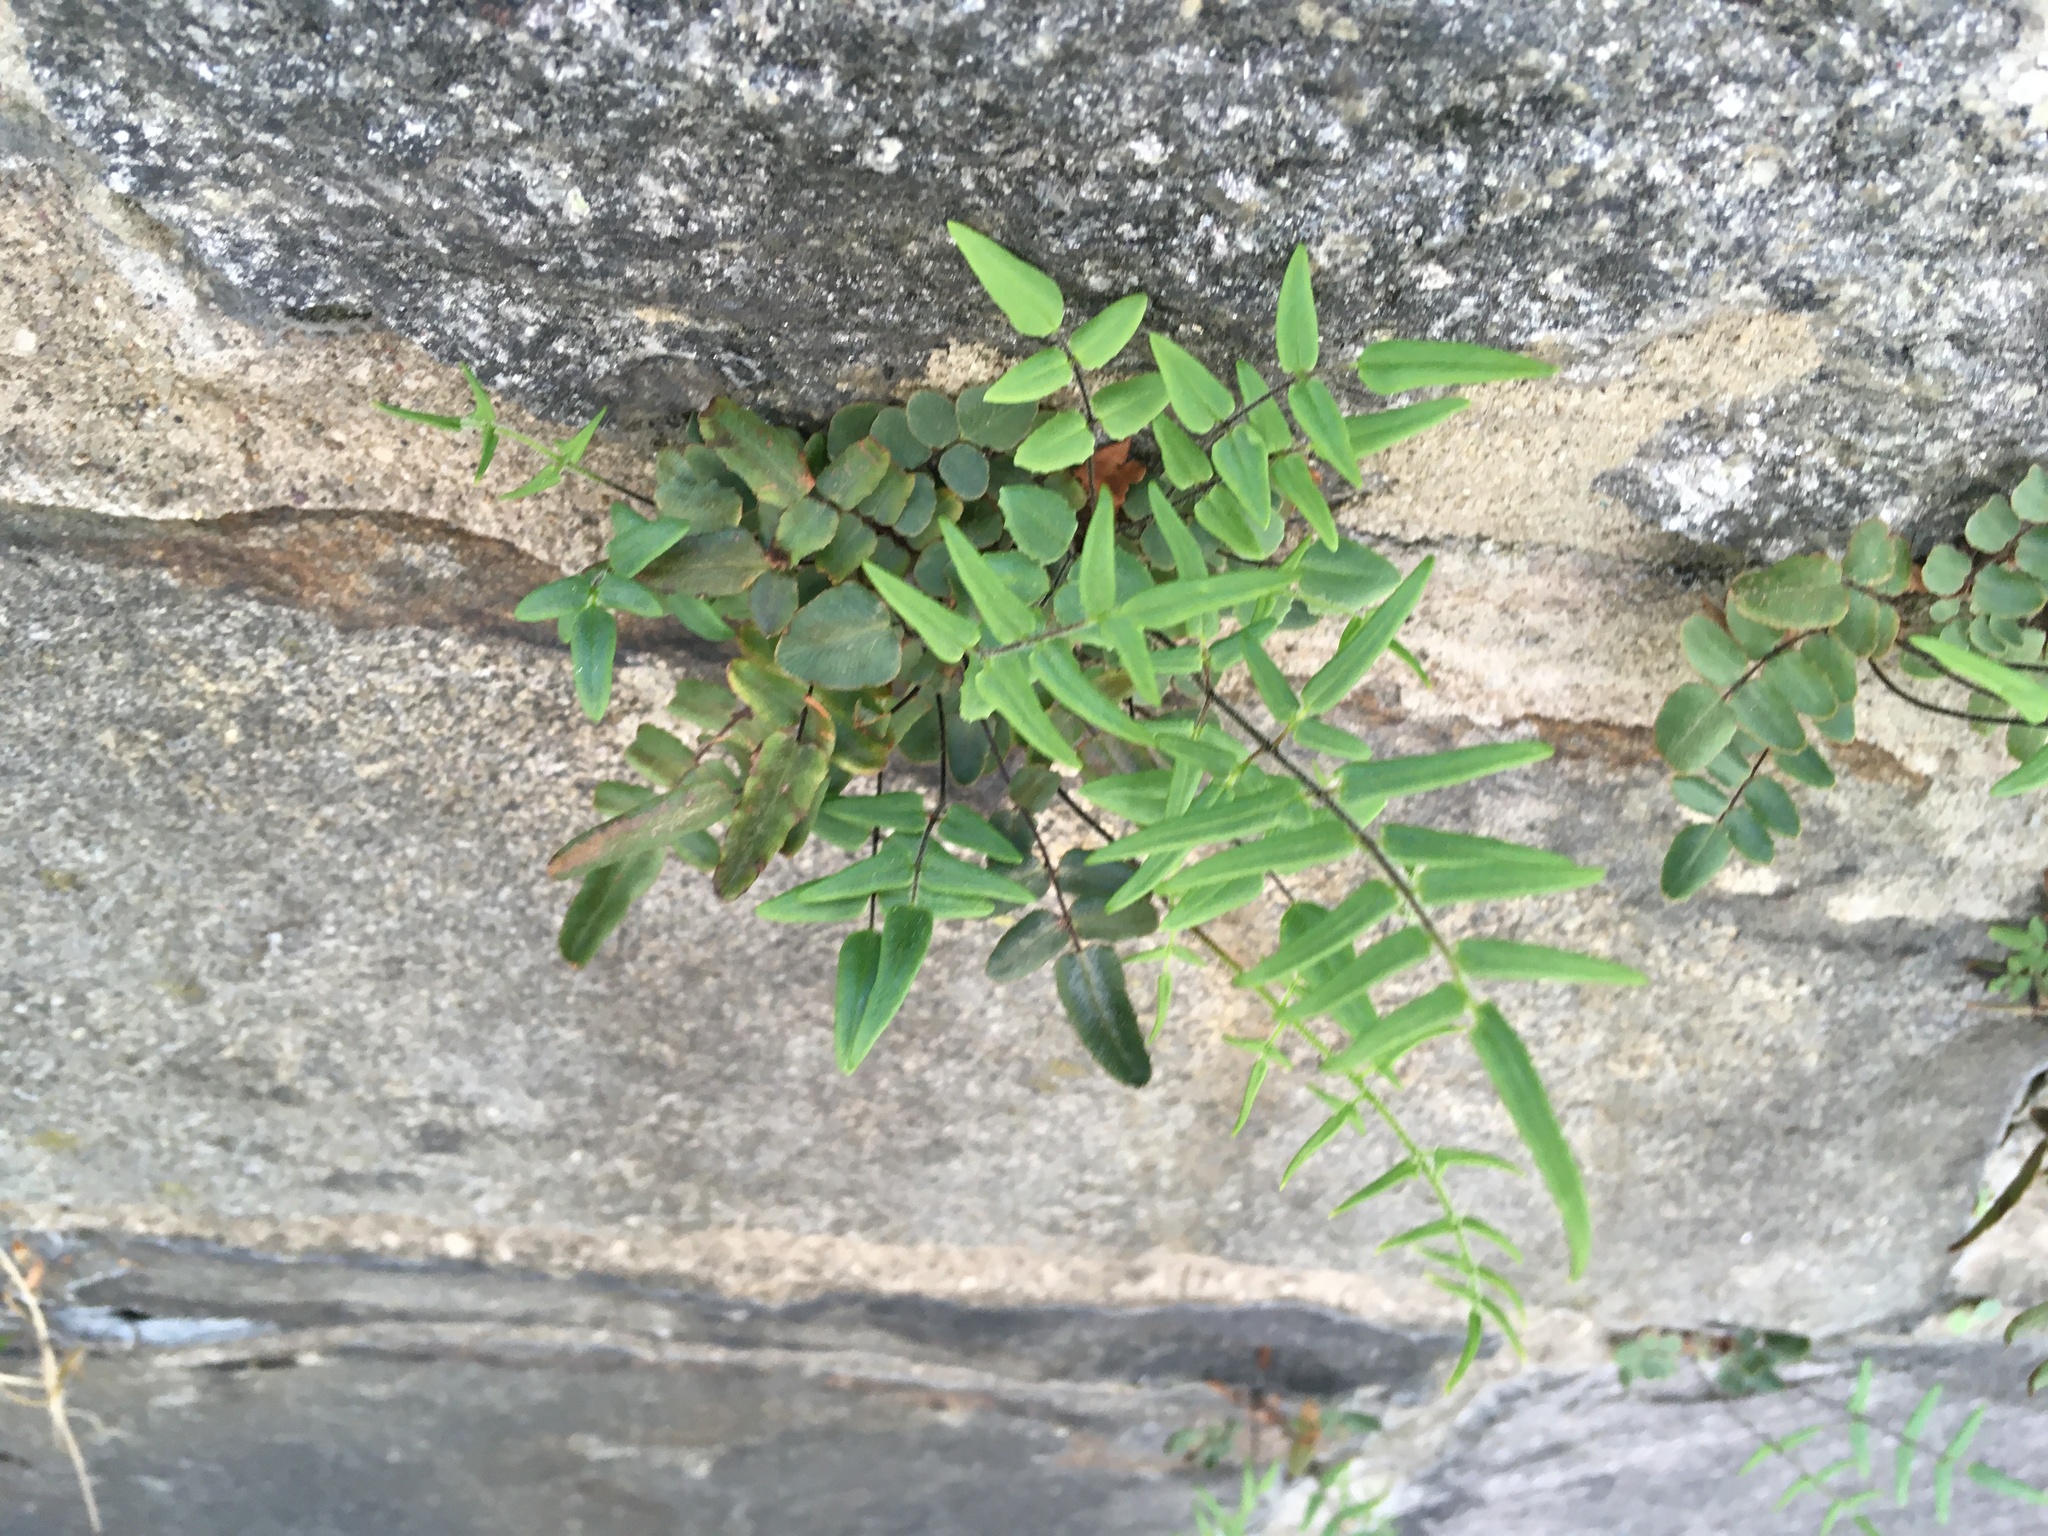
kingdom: Plantae
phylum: Tracheophyta
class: Polypodiopsida
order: Polypodiales
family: Pteridaceae
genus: Pellaea
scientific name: Pellaea atropurpurea
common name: Hairy cliffbrake
